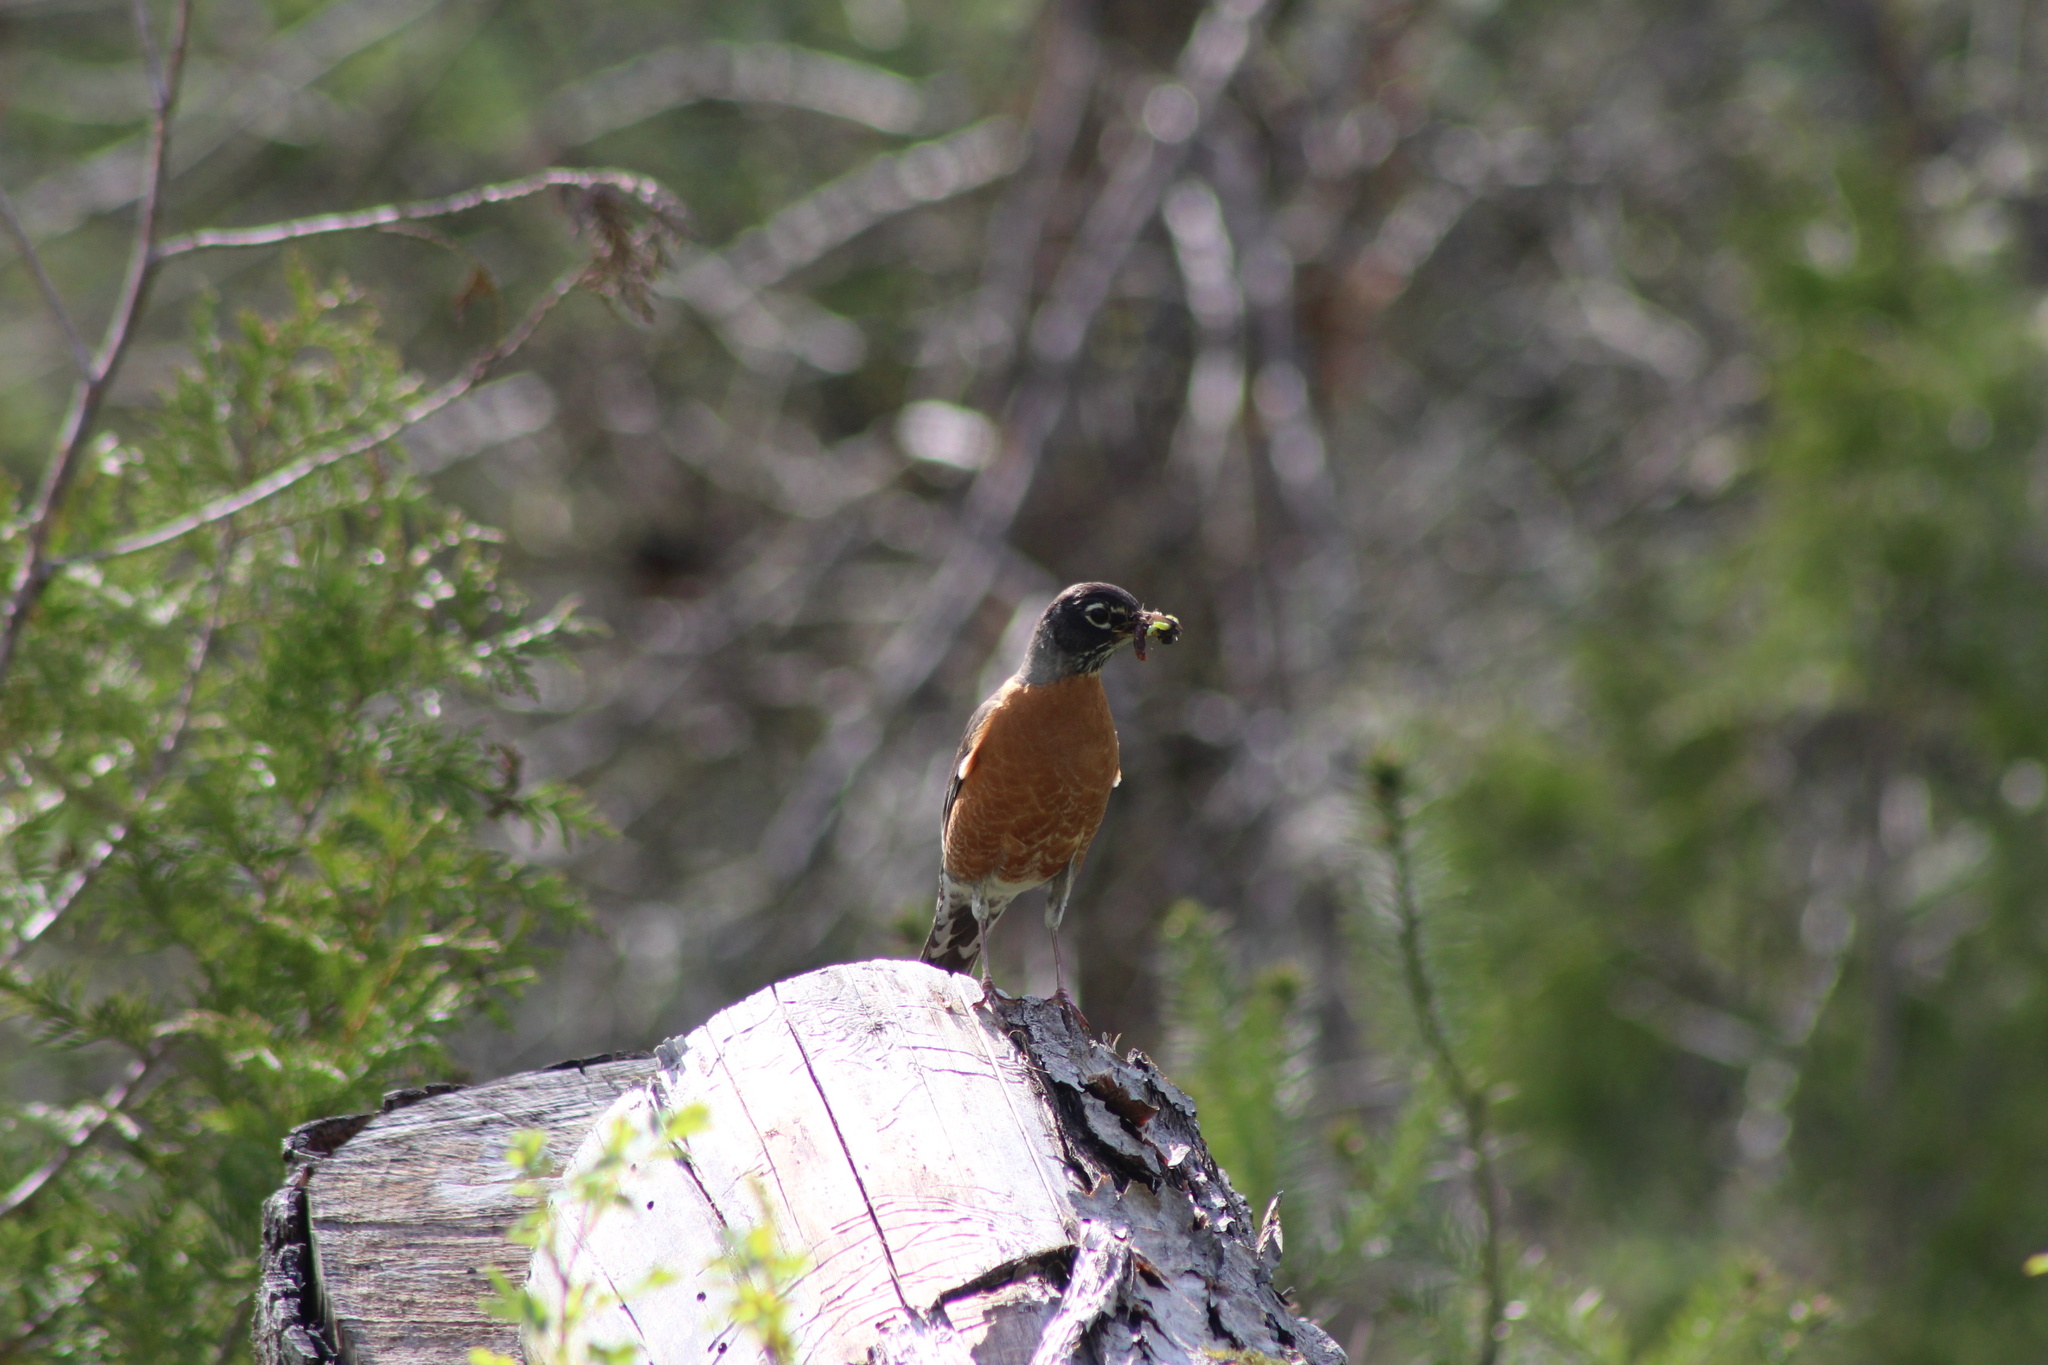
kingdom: Animalia
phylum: Chordata
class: Aves
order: Passeriformes
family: Turdidae
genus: Turdus
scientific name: Turdus migratorius
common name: American robin
